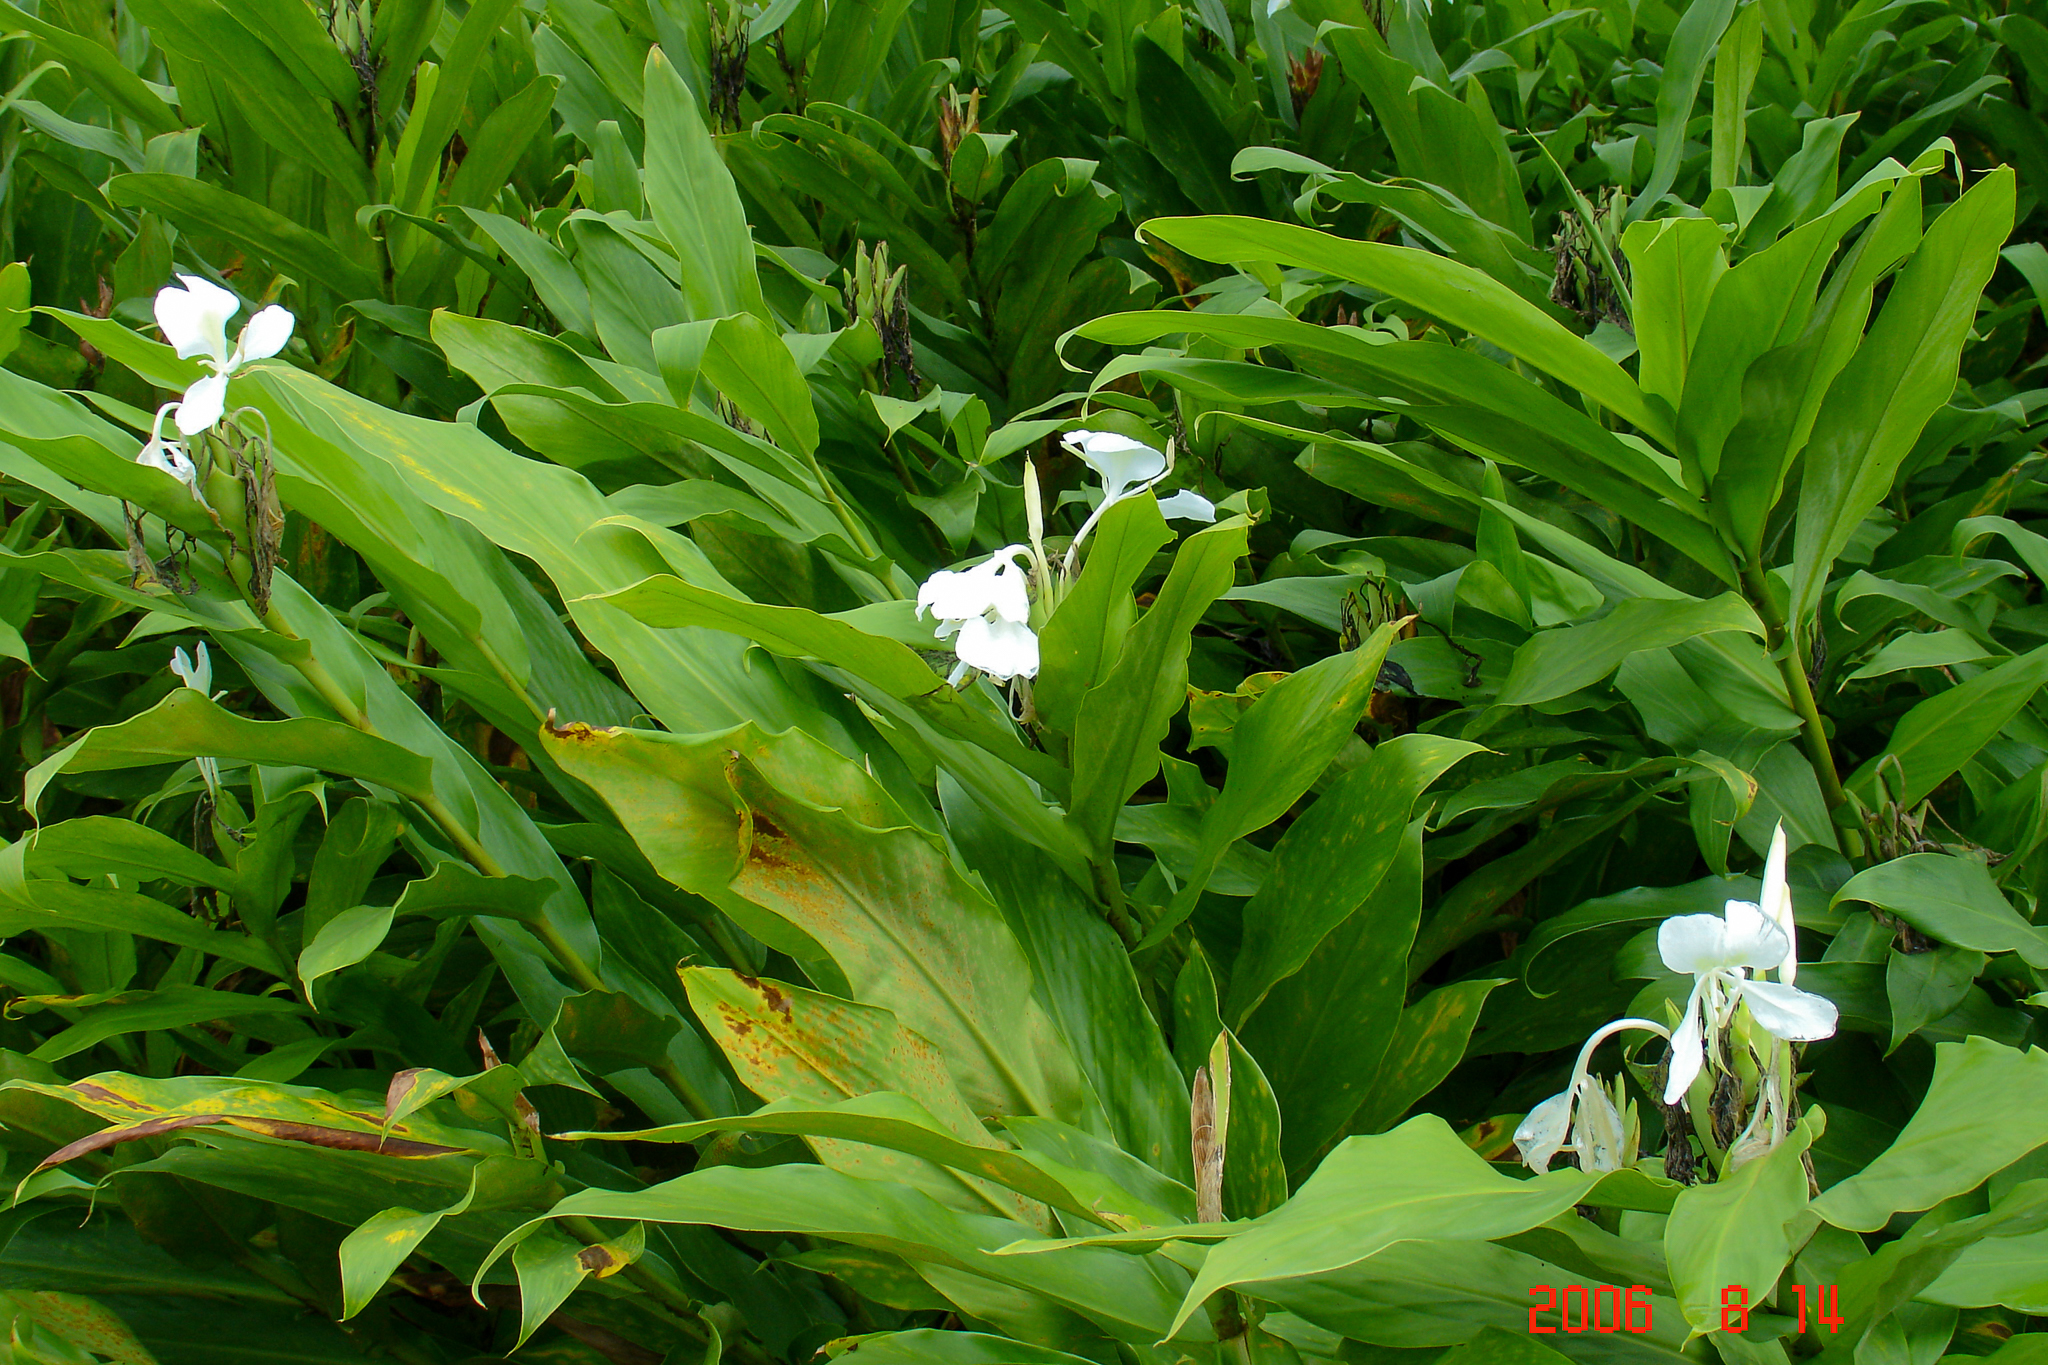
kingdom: Plantae
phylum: Tracheophyta
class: Liliopsida
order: Zingiberales
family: Zingiberaceae
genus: Hedychium
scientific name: Hedychium coronarium
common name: White garland-lily
